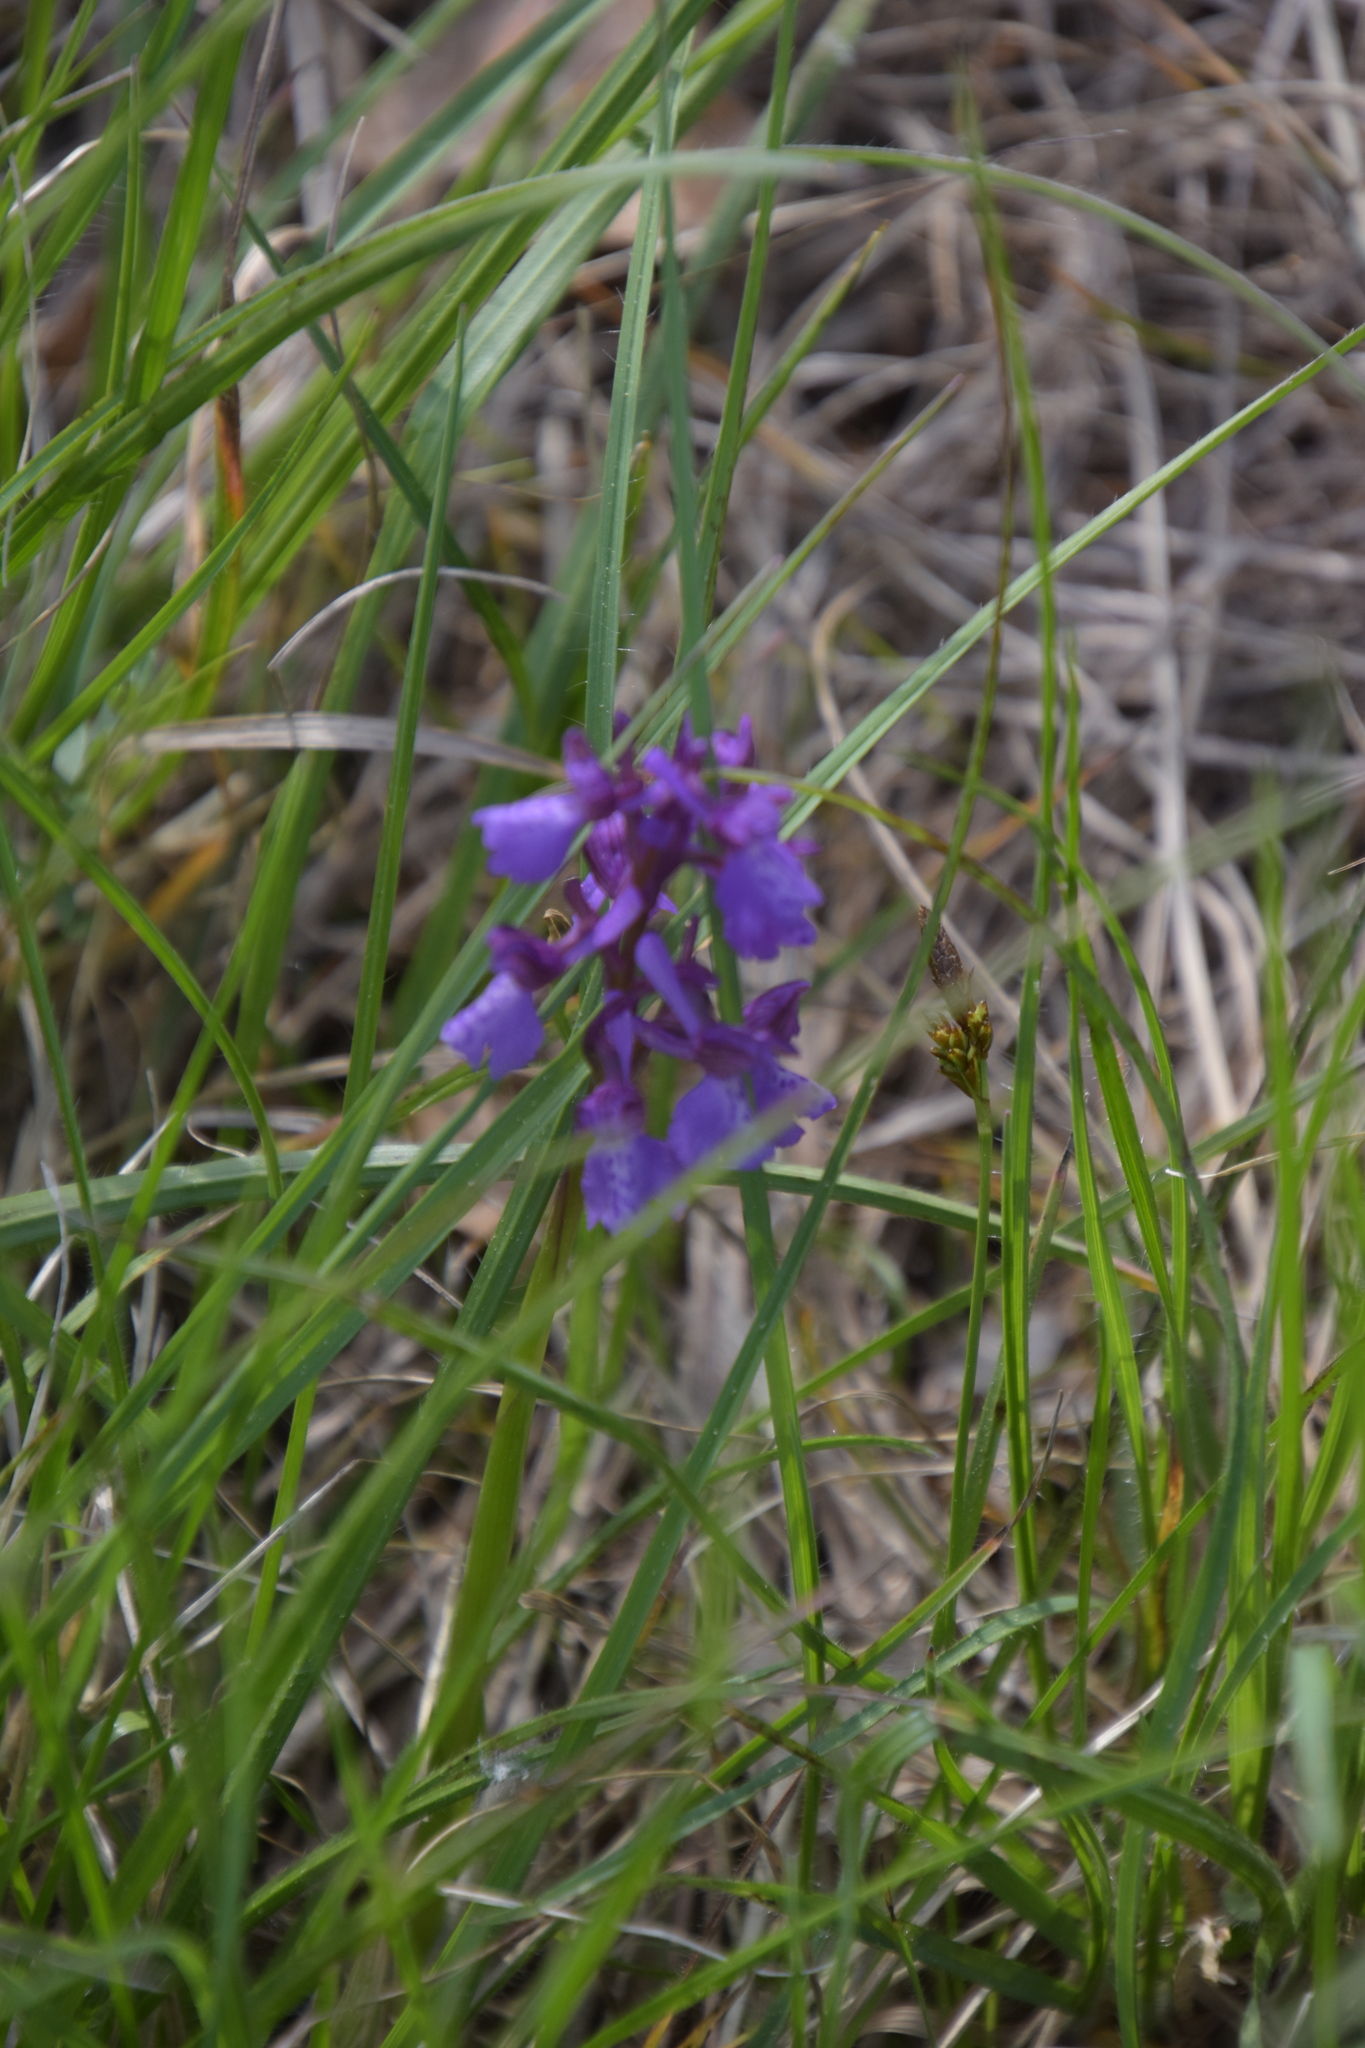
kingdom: Plantae
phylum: Tracheophyta
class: Liliopsida
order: Asparagales
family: Orchidaceae
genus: Anacamptis
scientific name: Anacamptis morio
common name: Green-winged orchid
